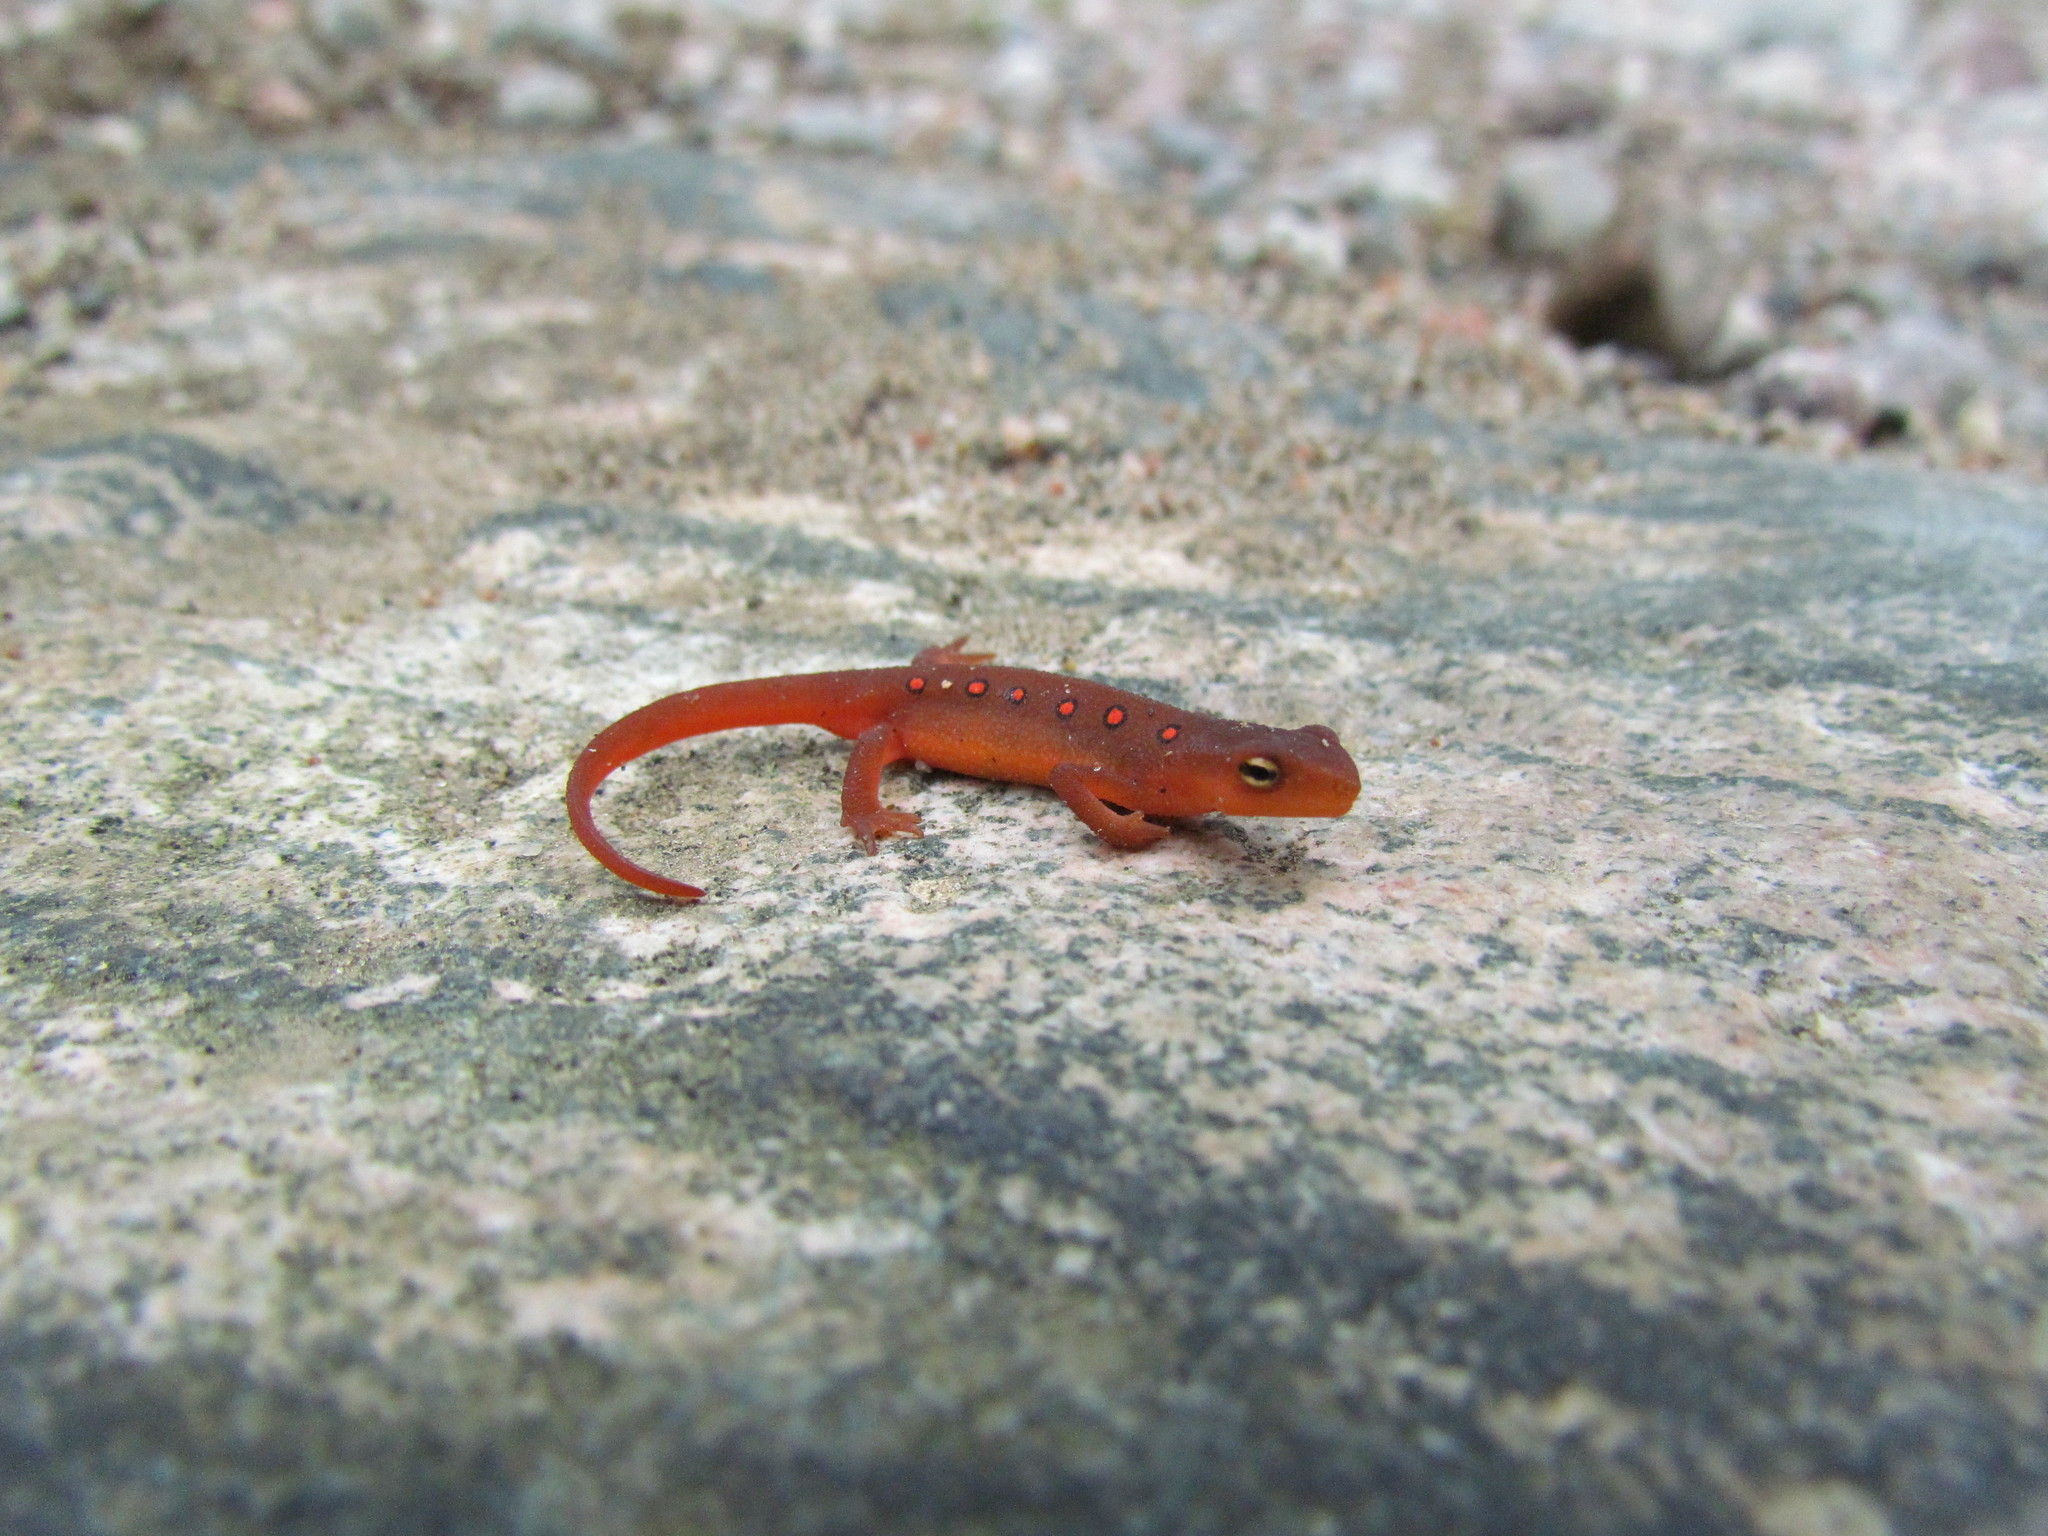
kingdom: Animalia
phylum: Chordata
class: Amphibia
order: Caudata
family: Salamandridae
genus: Notophthalmus
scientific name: Notophthalmus viridescens
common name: Eastern newt
